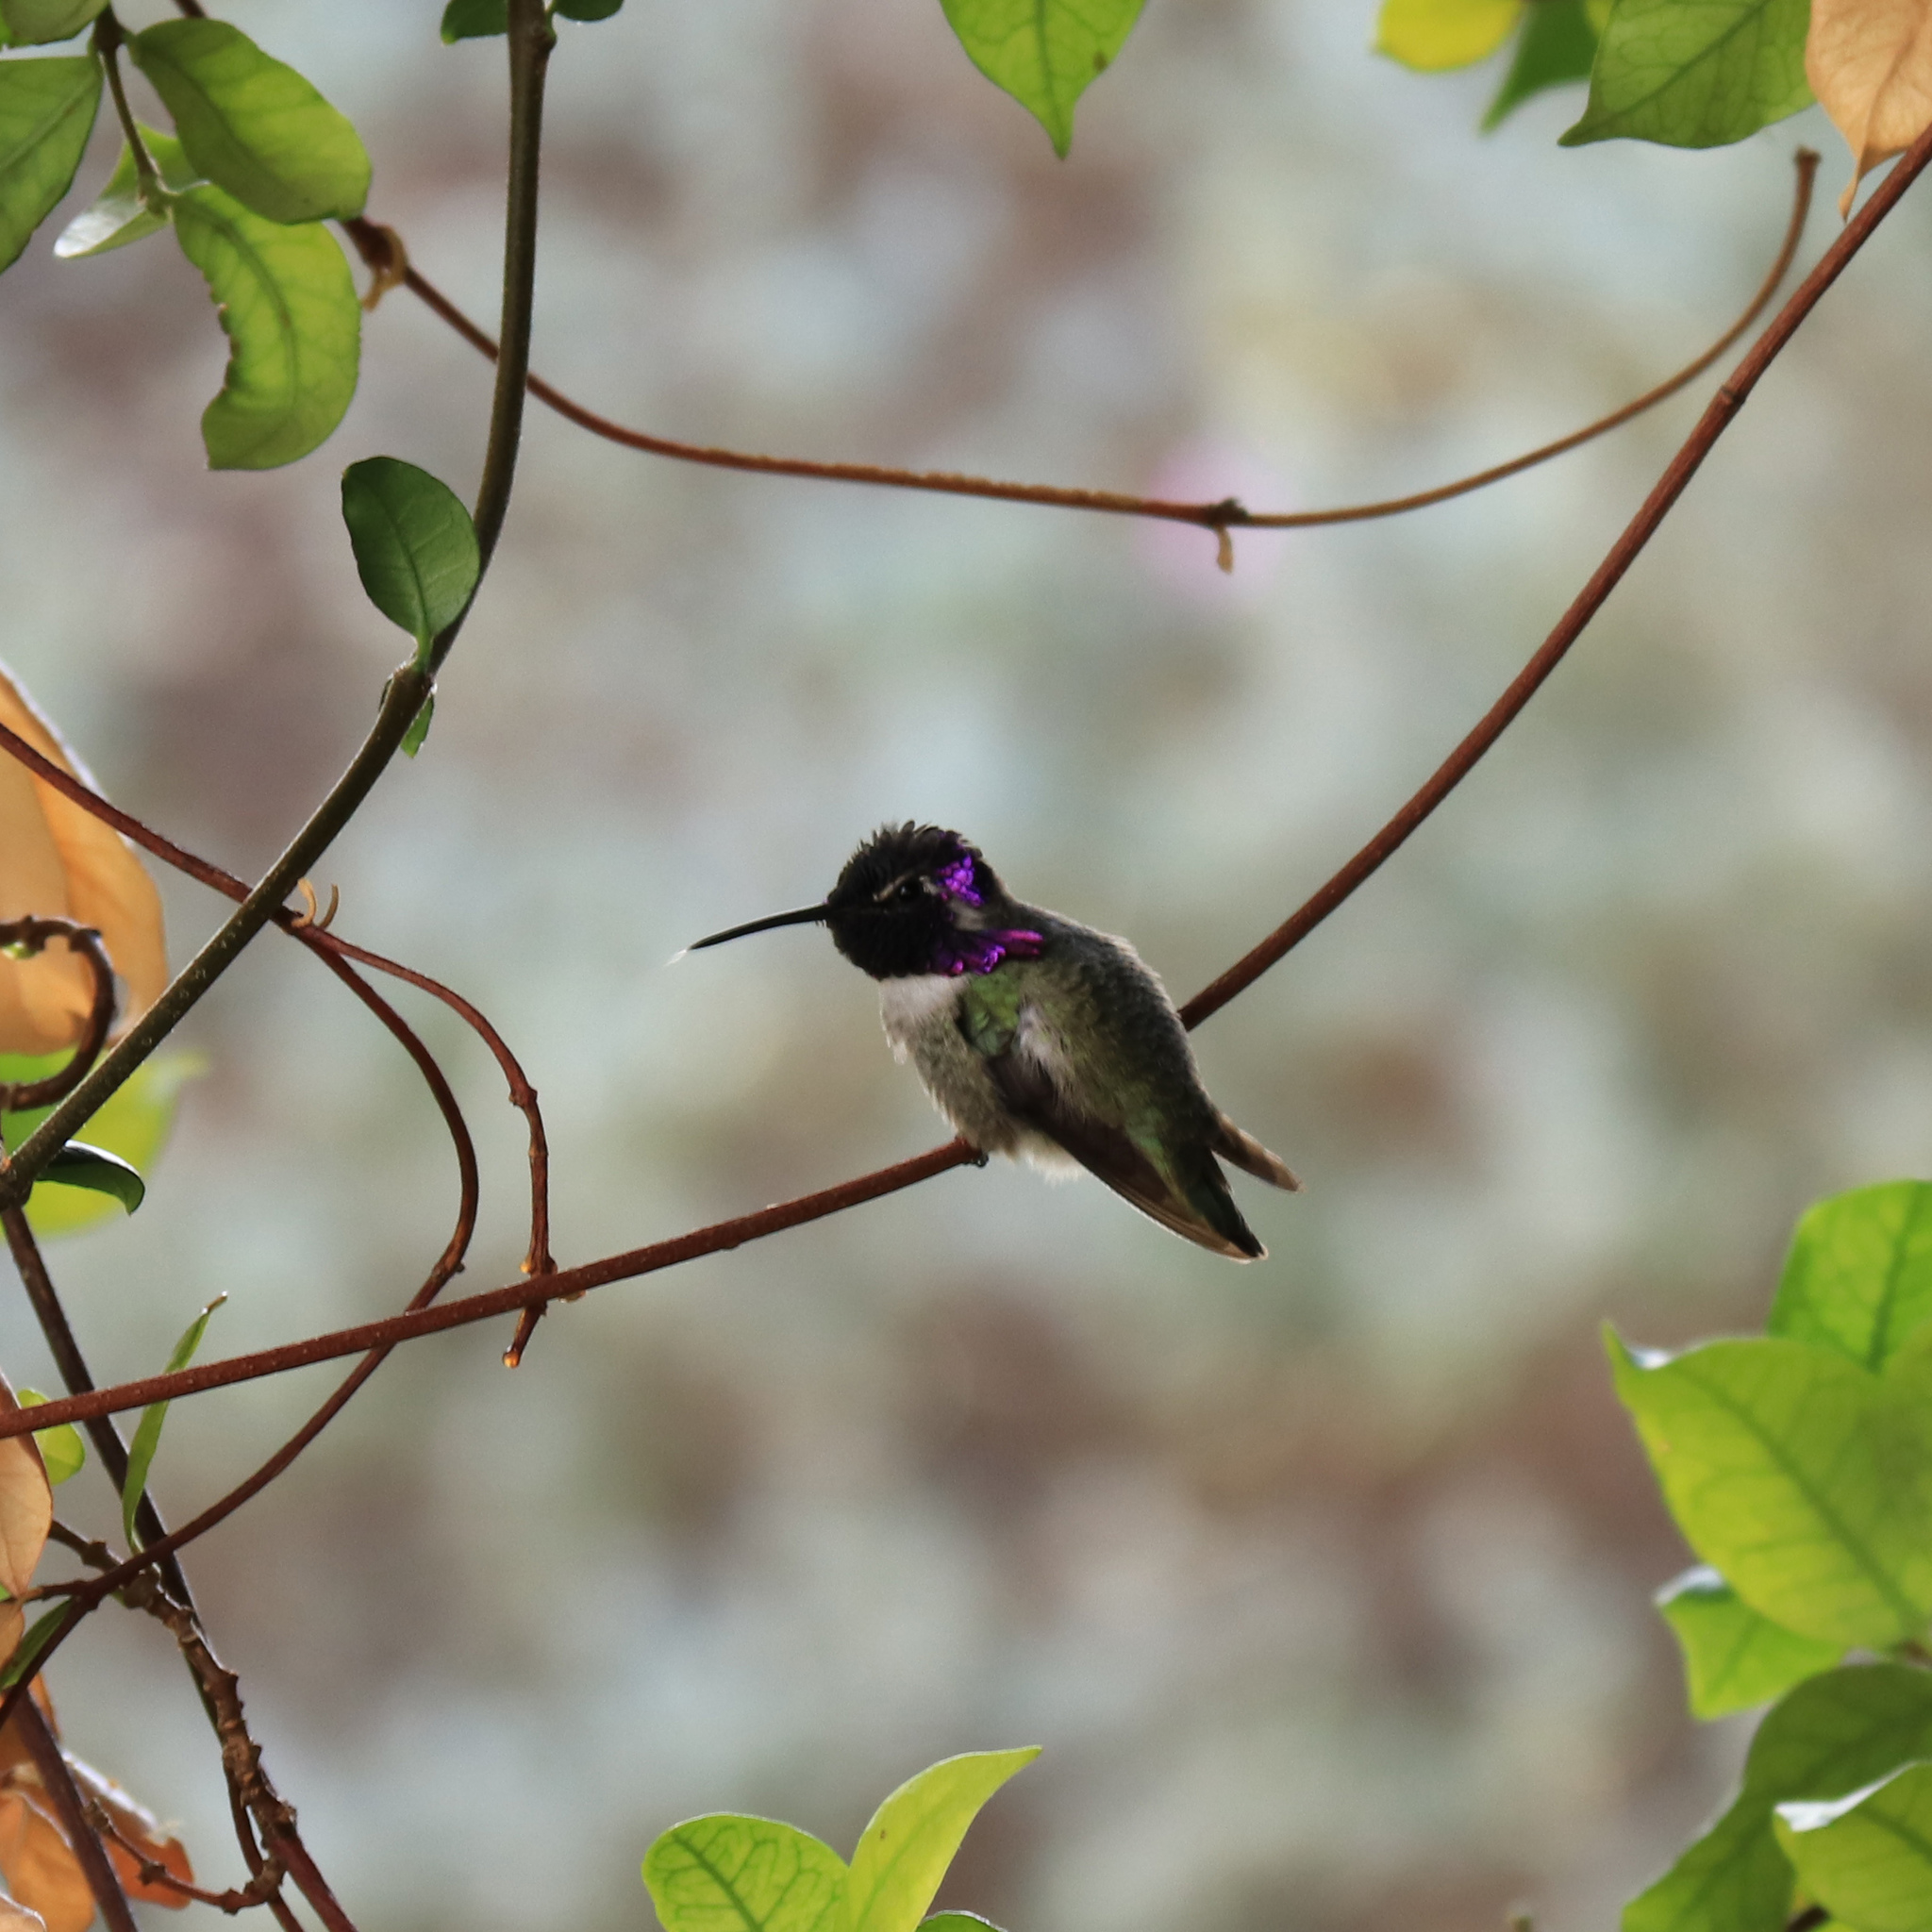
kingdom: Animalia
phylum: Chordata
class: Aves
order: Apodiformes
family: Trochilidae
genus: Calypte
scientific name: Calypte costae
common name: Costa's hummingbird
